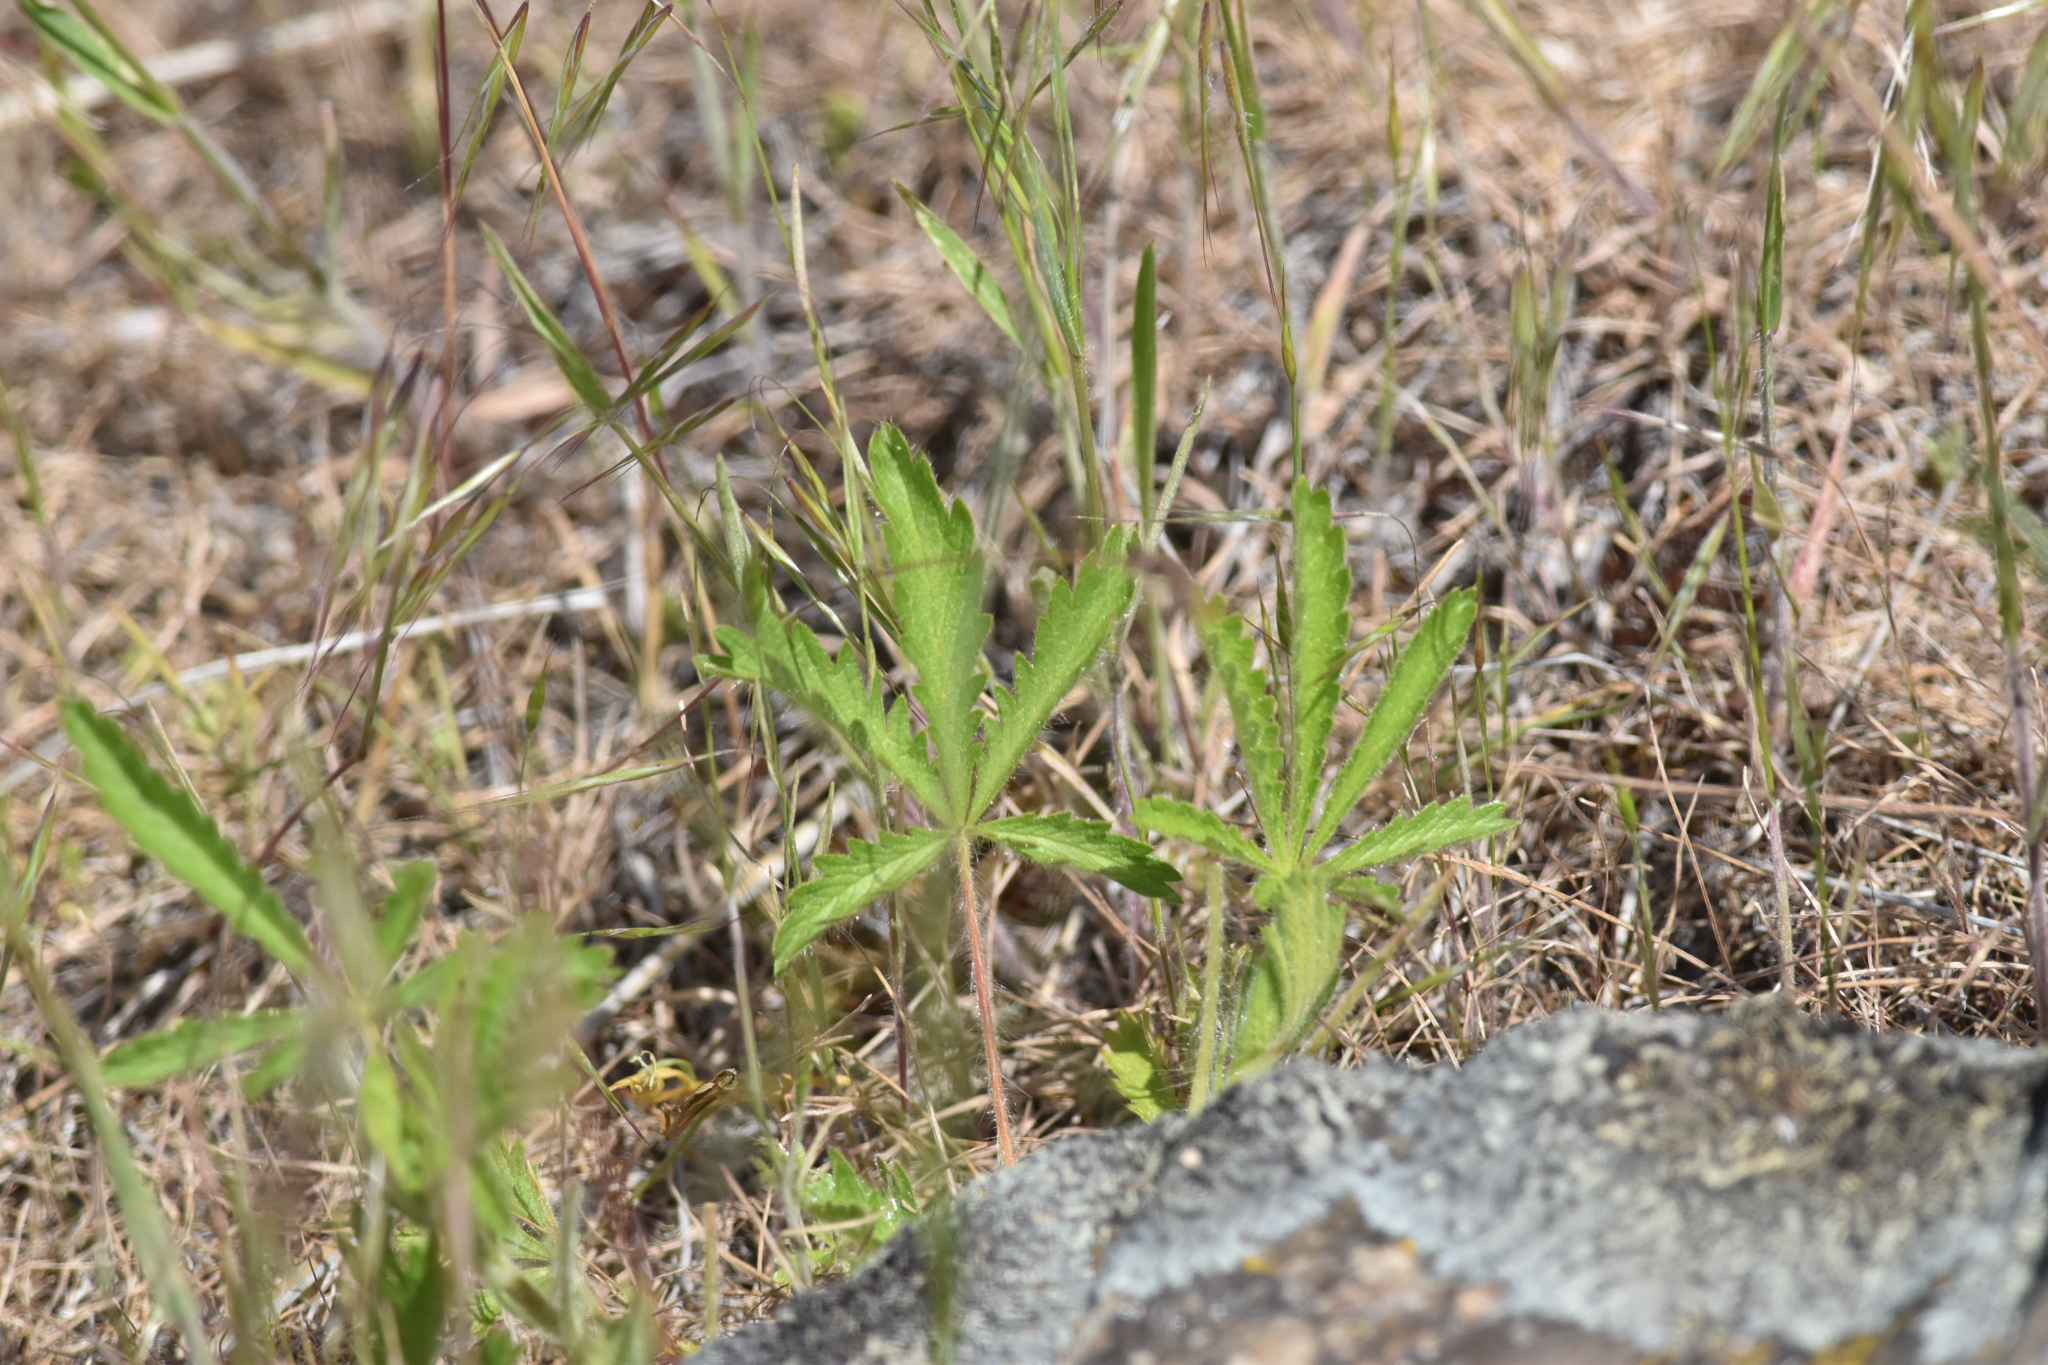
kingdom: Plantae
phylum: Tracheophyta
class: Magnoliopsida
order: Rosales
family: Rosaceae
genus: Potentilla
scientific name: Potentilla recta
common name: Sulphur cinquefoil
